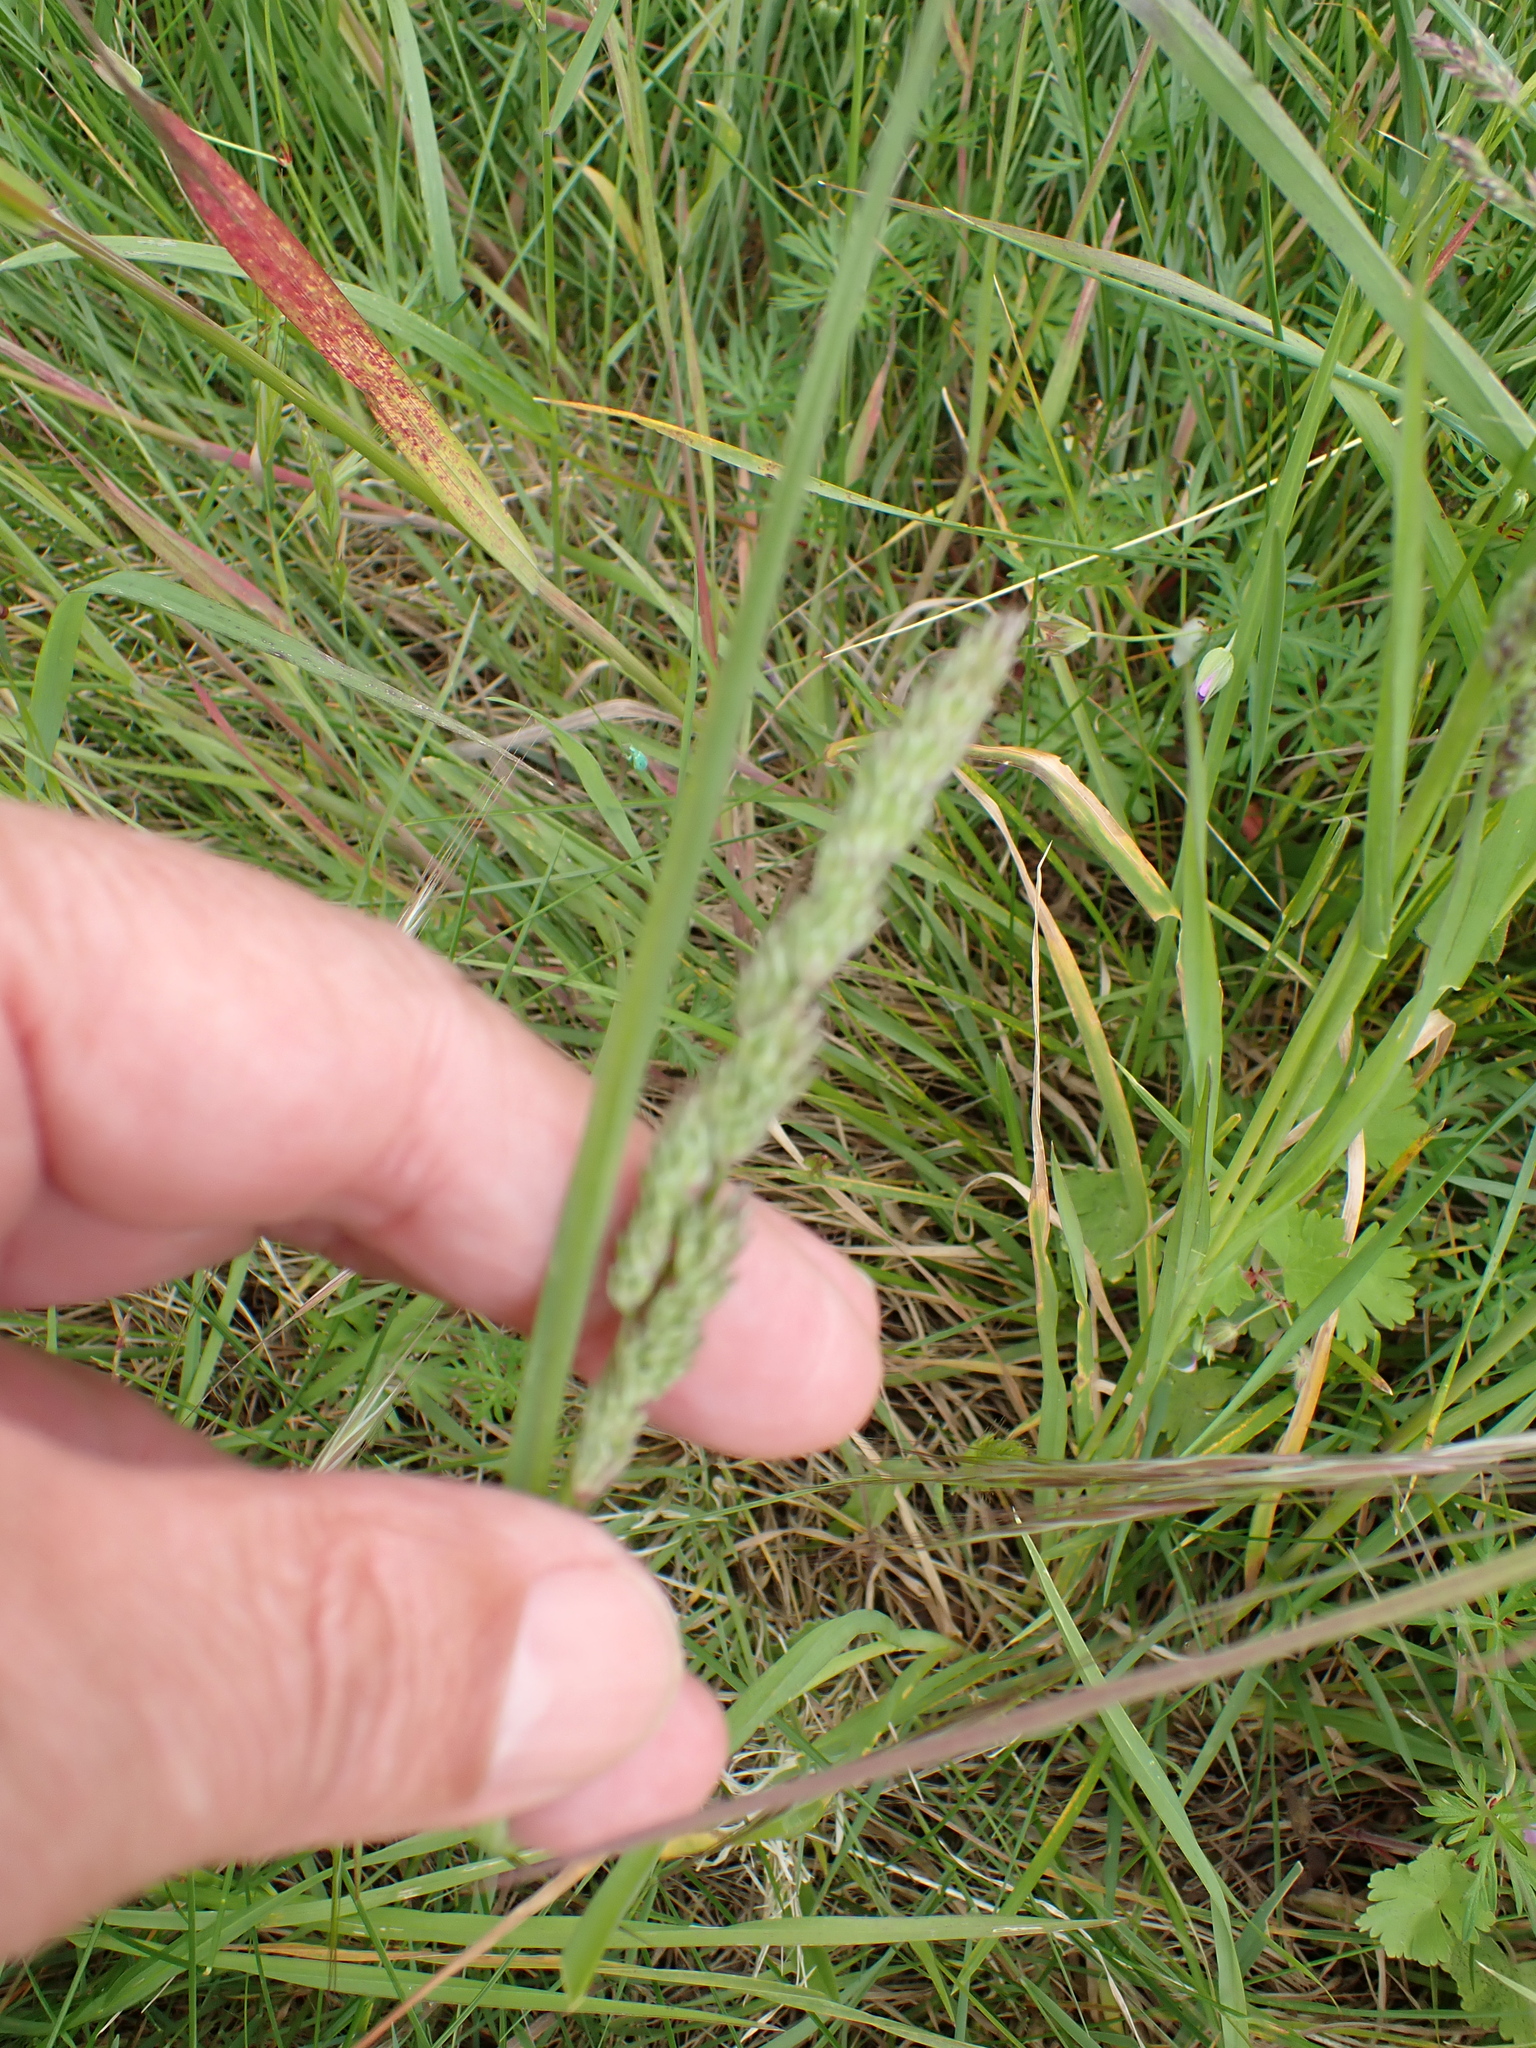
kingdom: Plantae
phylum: Tracheophyta
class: Liliopsida
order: Poales
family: Poaceae
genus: Dactylis
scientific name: Dactylis glomerata
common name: Orchardgrass
